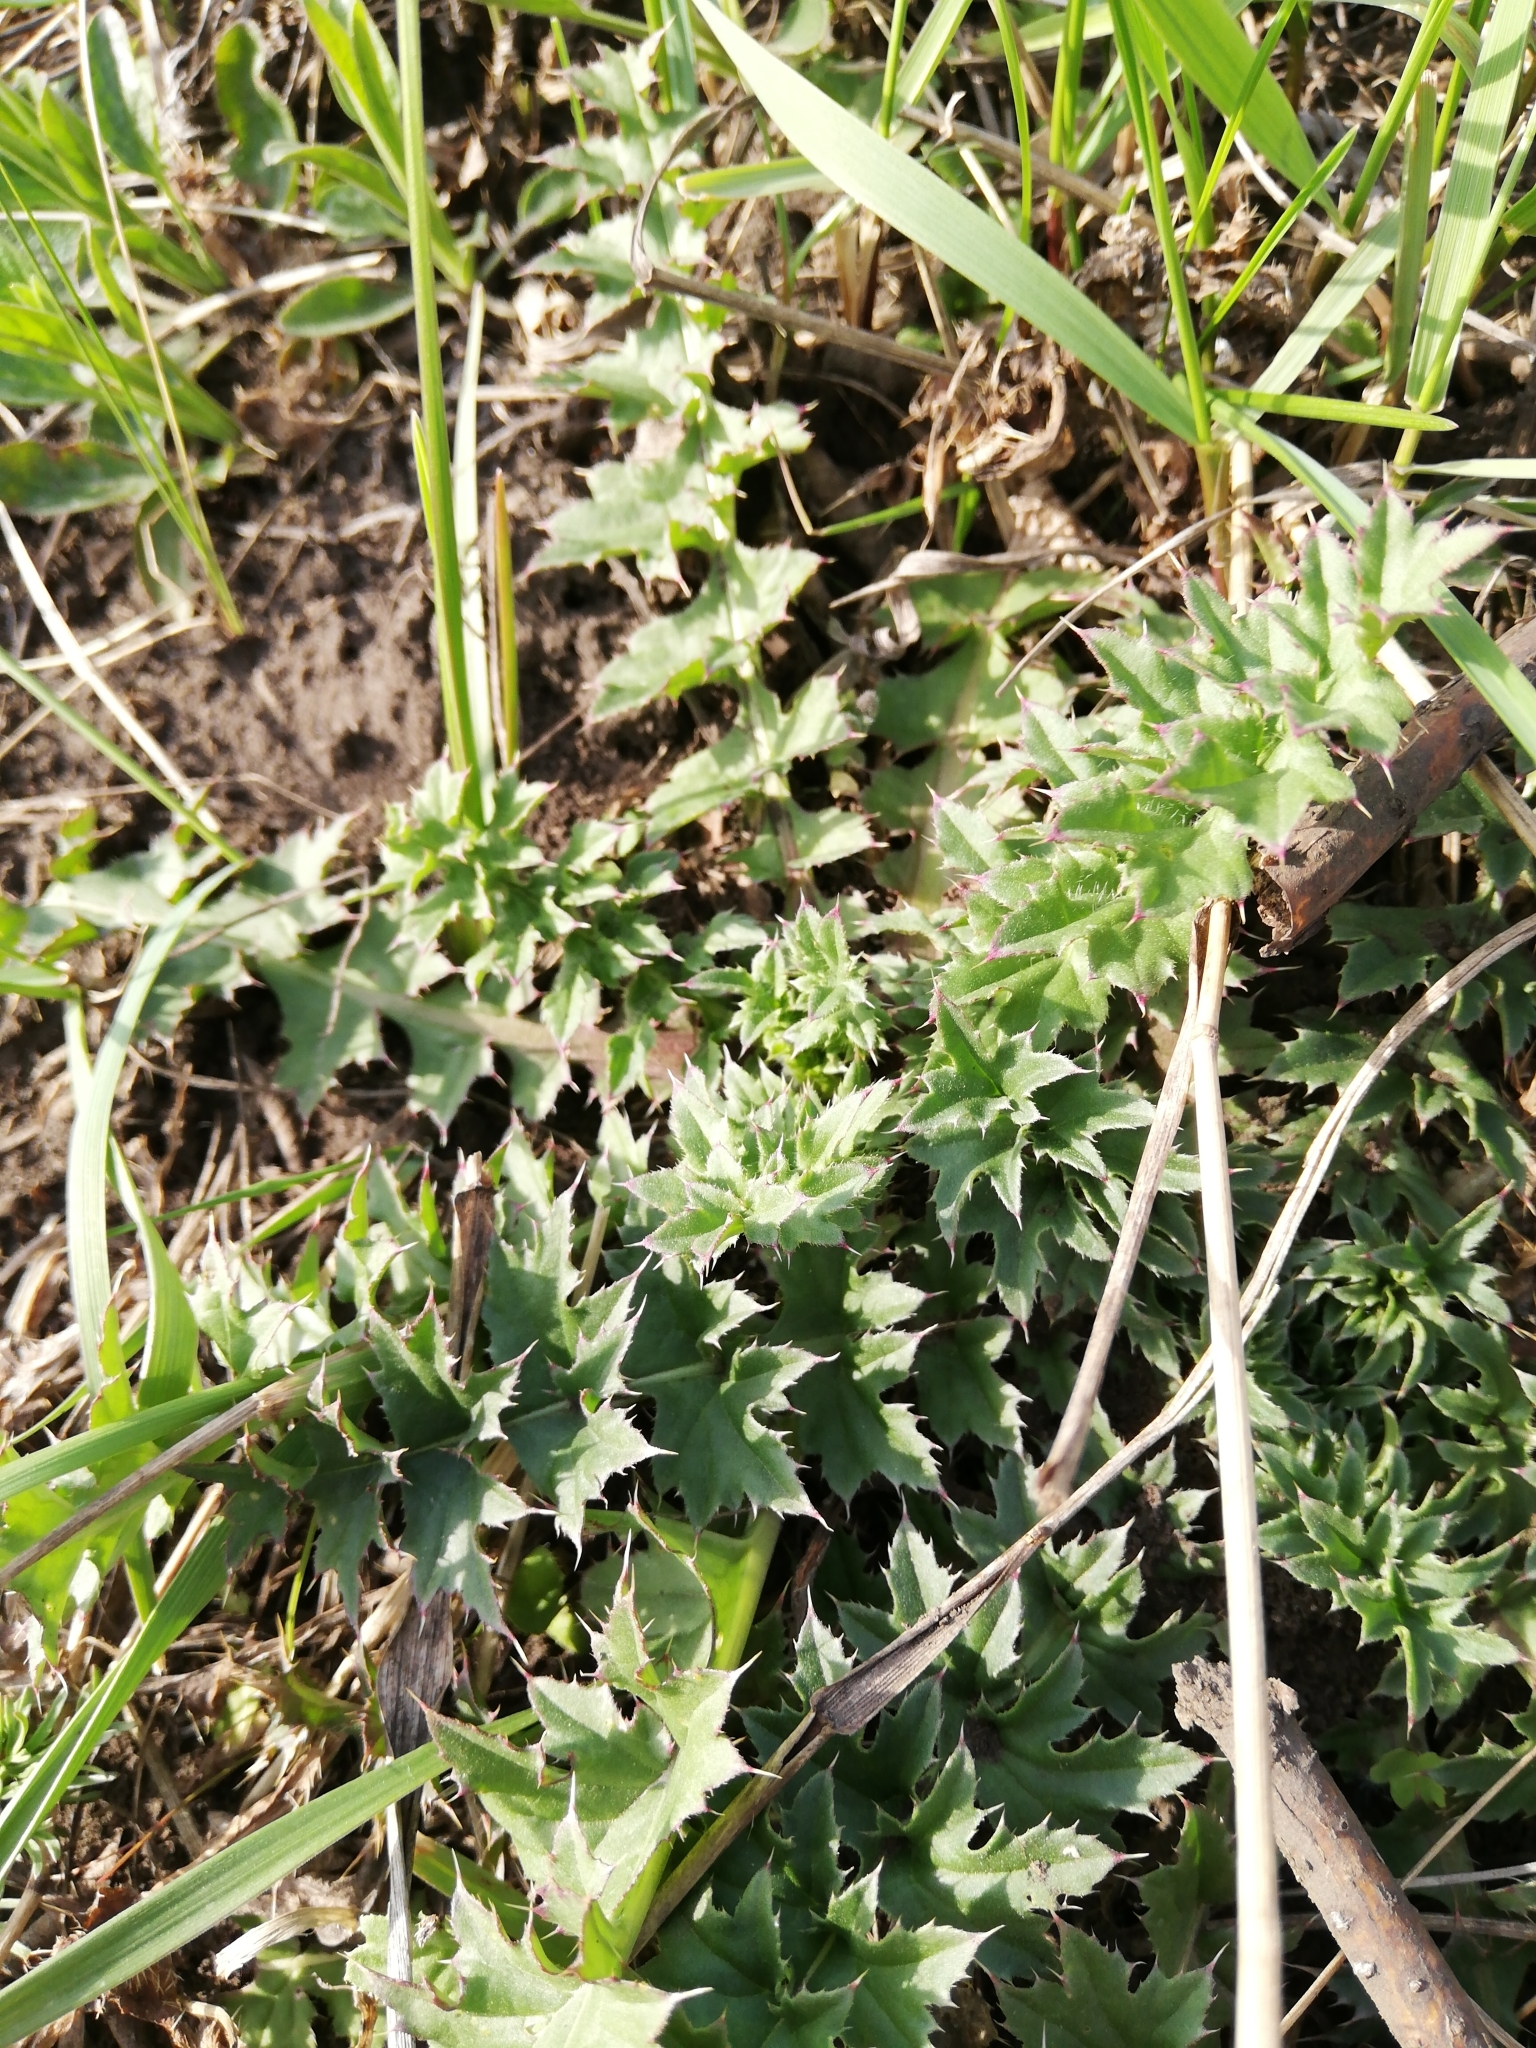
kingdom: Plantae
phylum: Tracheophyta
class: Magnoliopsida
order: Asterales
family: Asteraceae
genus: Carduus
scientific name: Carduus acanthoides
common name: Plumeless thistle
